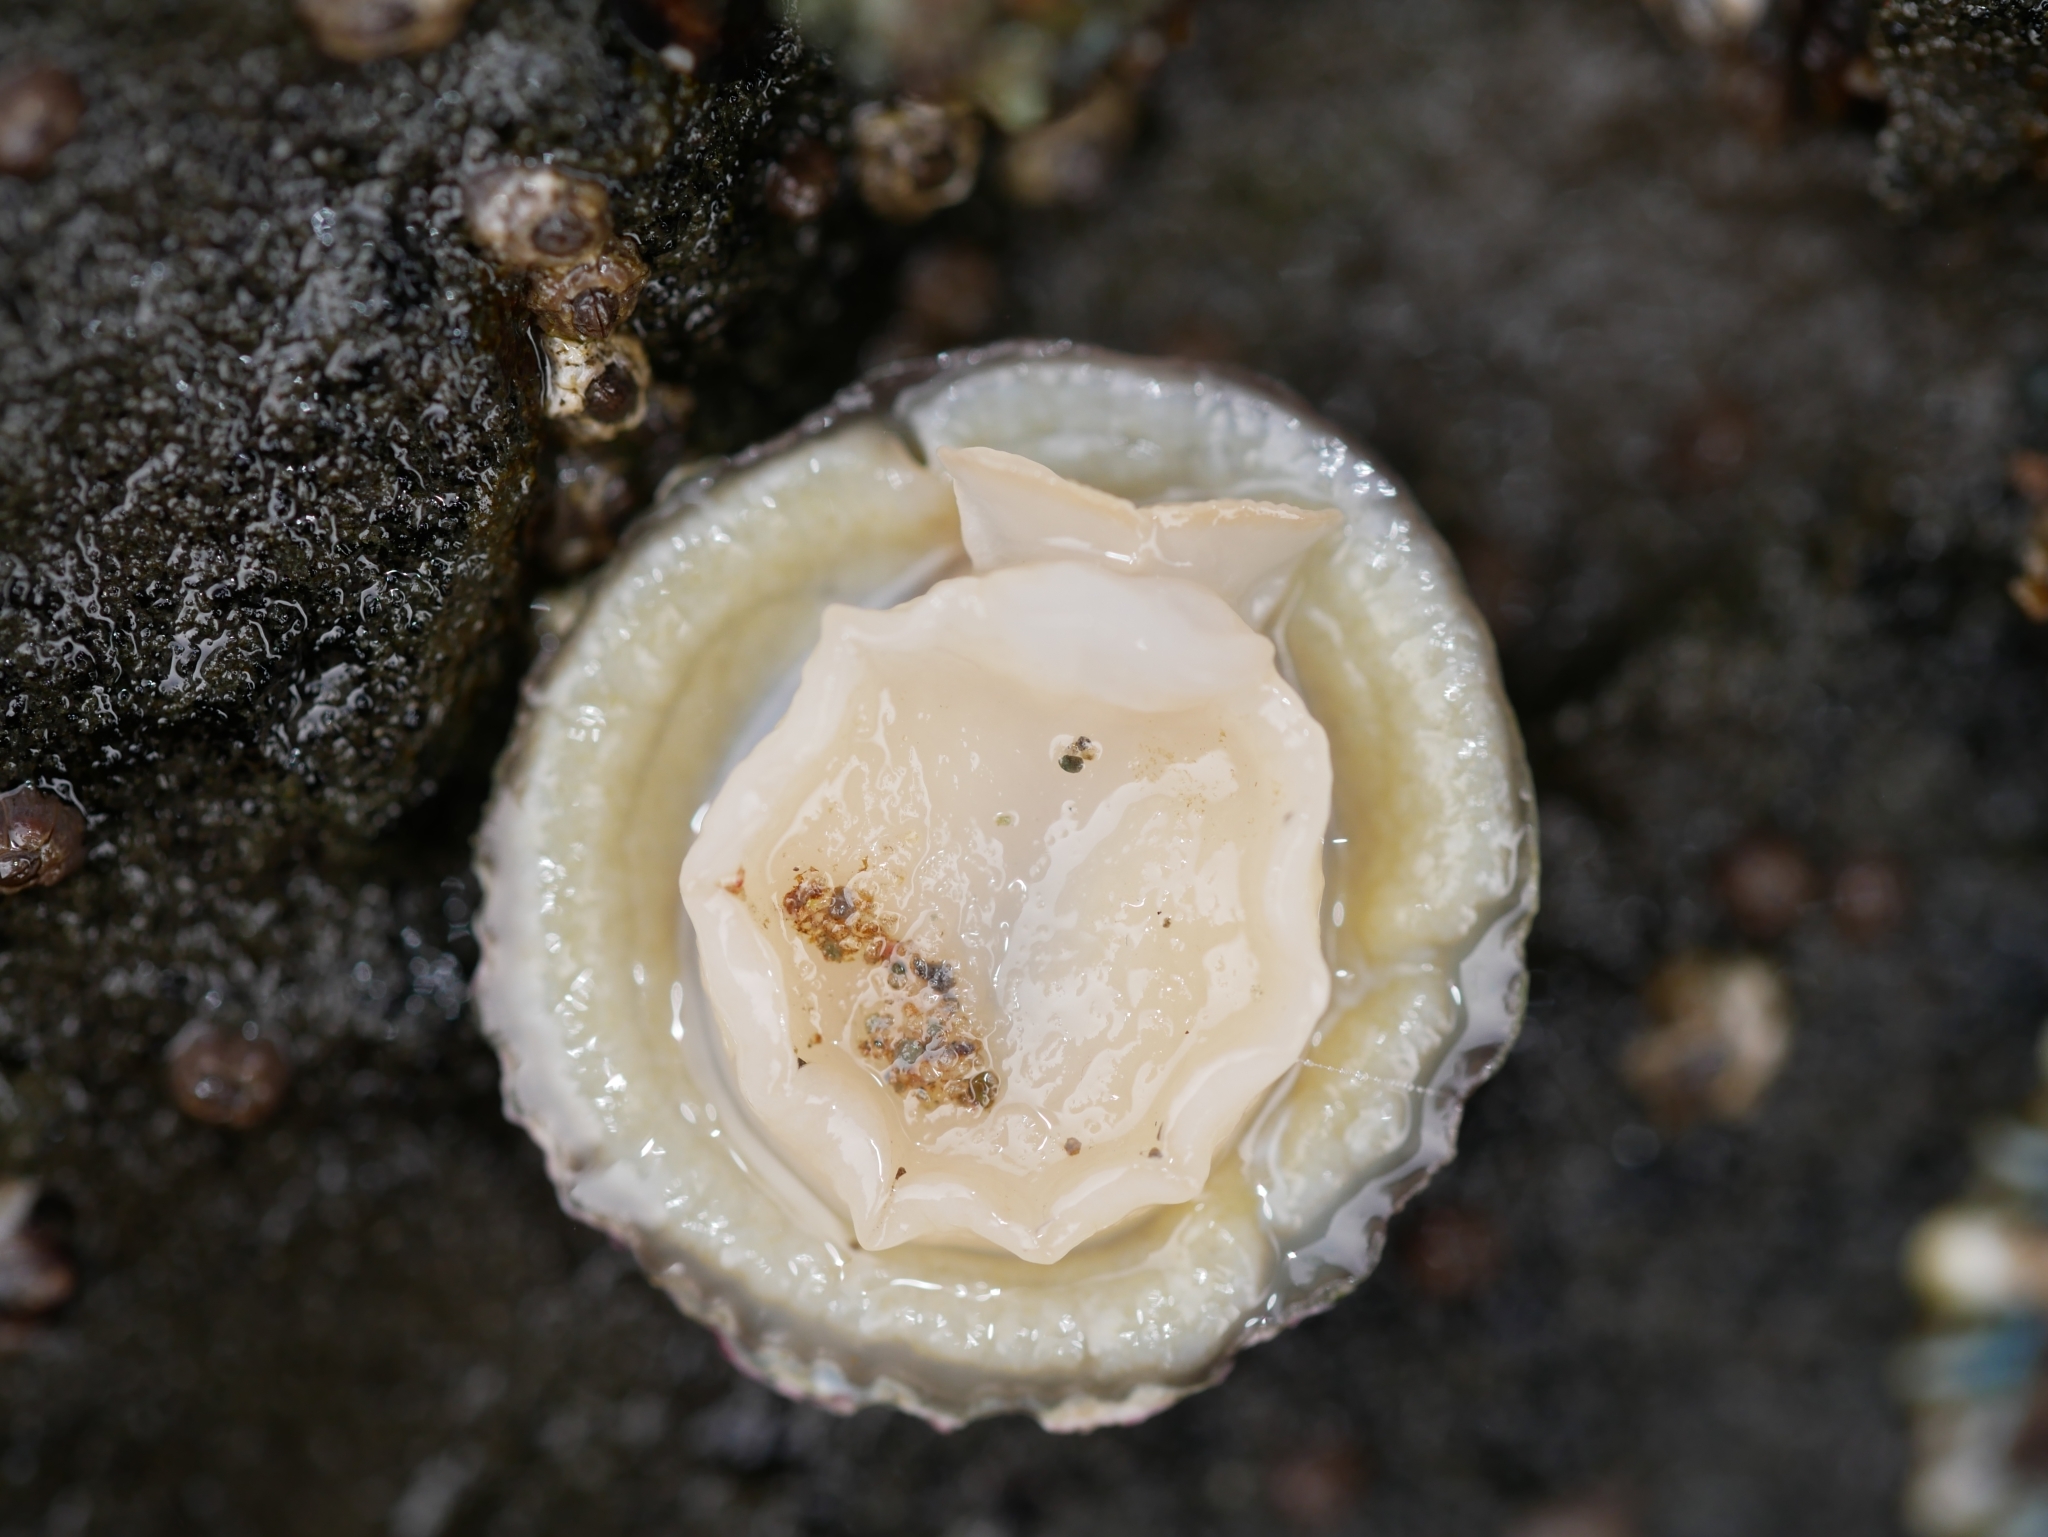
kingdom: Animalia
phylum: Mollusca
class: Gastropoda
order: Ellobiida
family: Trimusculidae
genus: Trimusculus
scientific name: Trimusculus reticulatus
